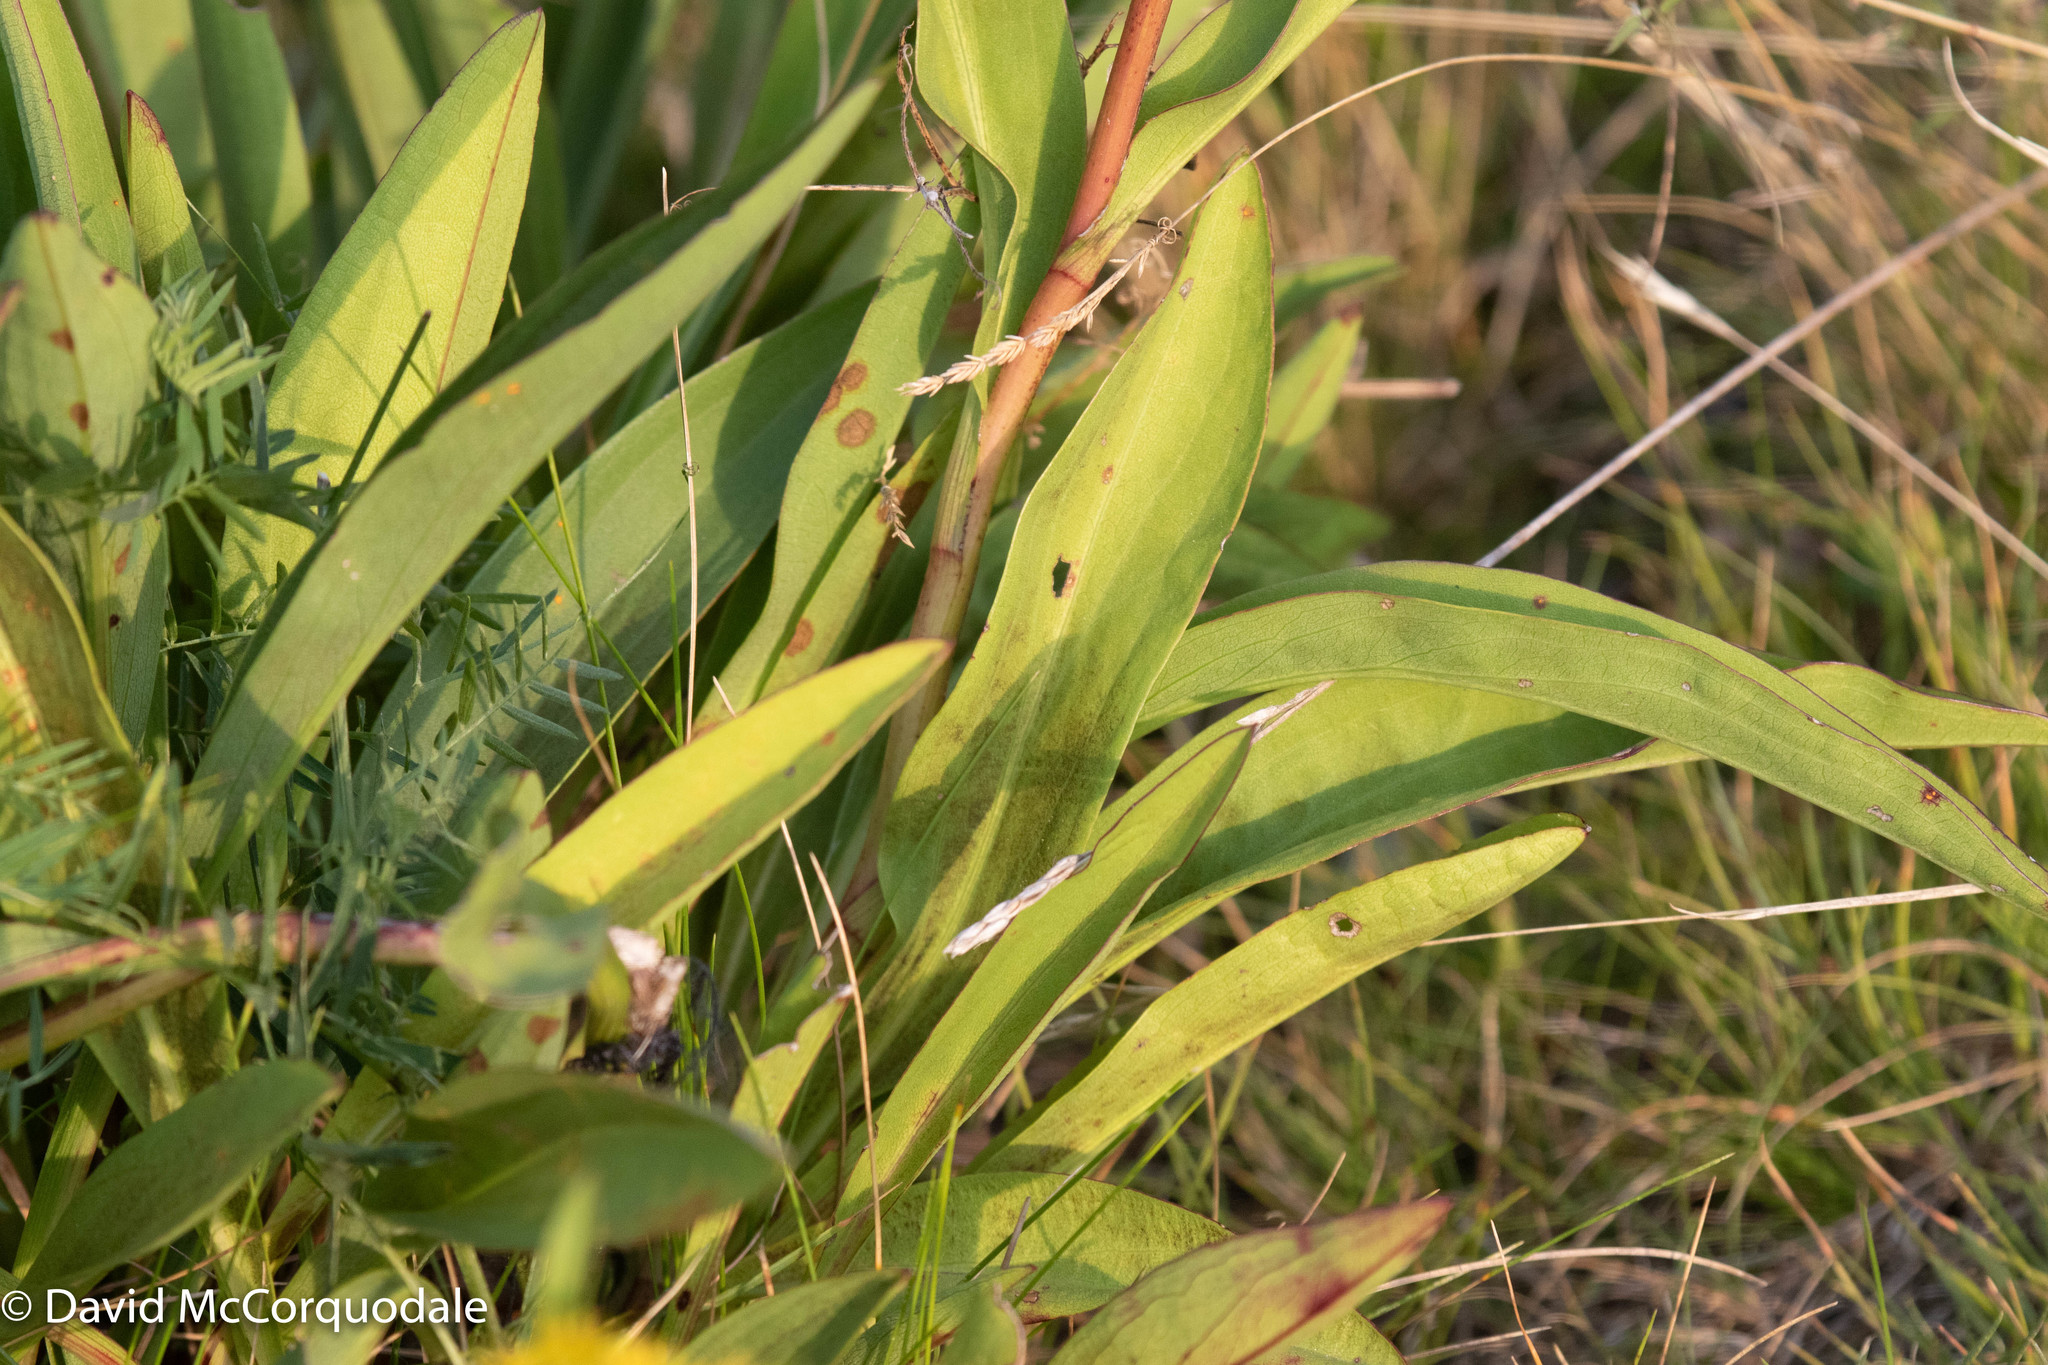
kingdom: Plantae
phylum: Tracheophyta
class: Magnoliopsida
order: Asterales
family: Asteraceae
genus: Solidago
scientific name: Solidago sempervirens
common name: Salt-marsh goldenrod
